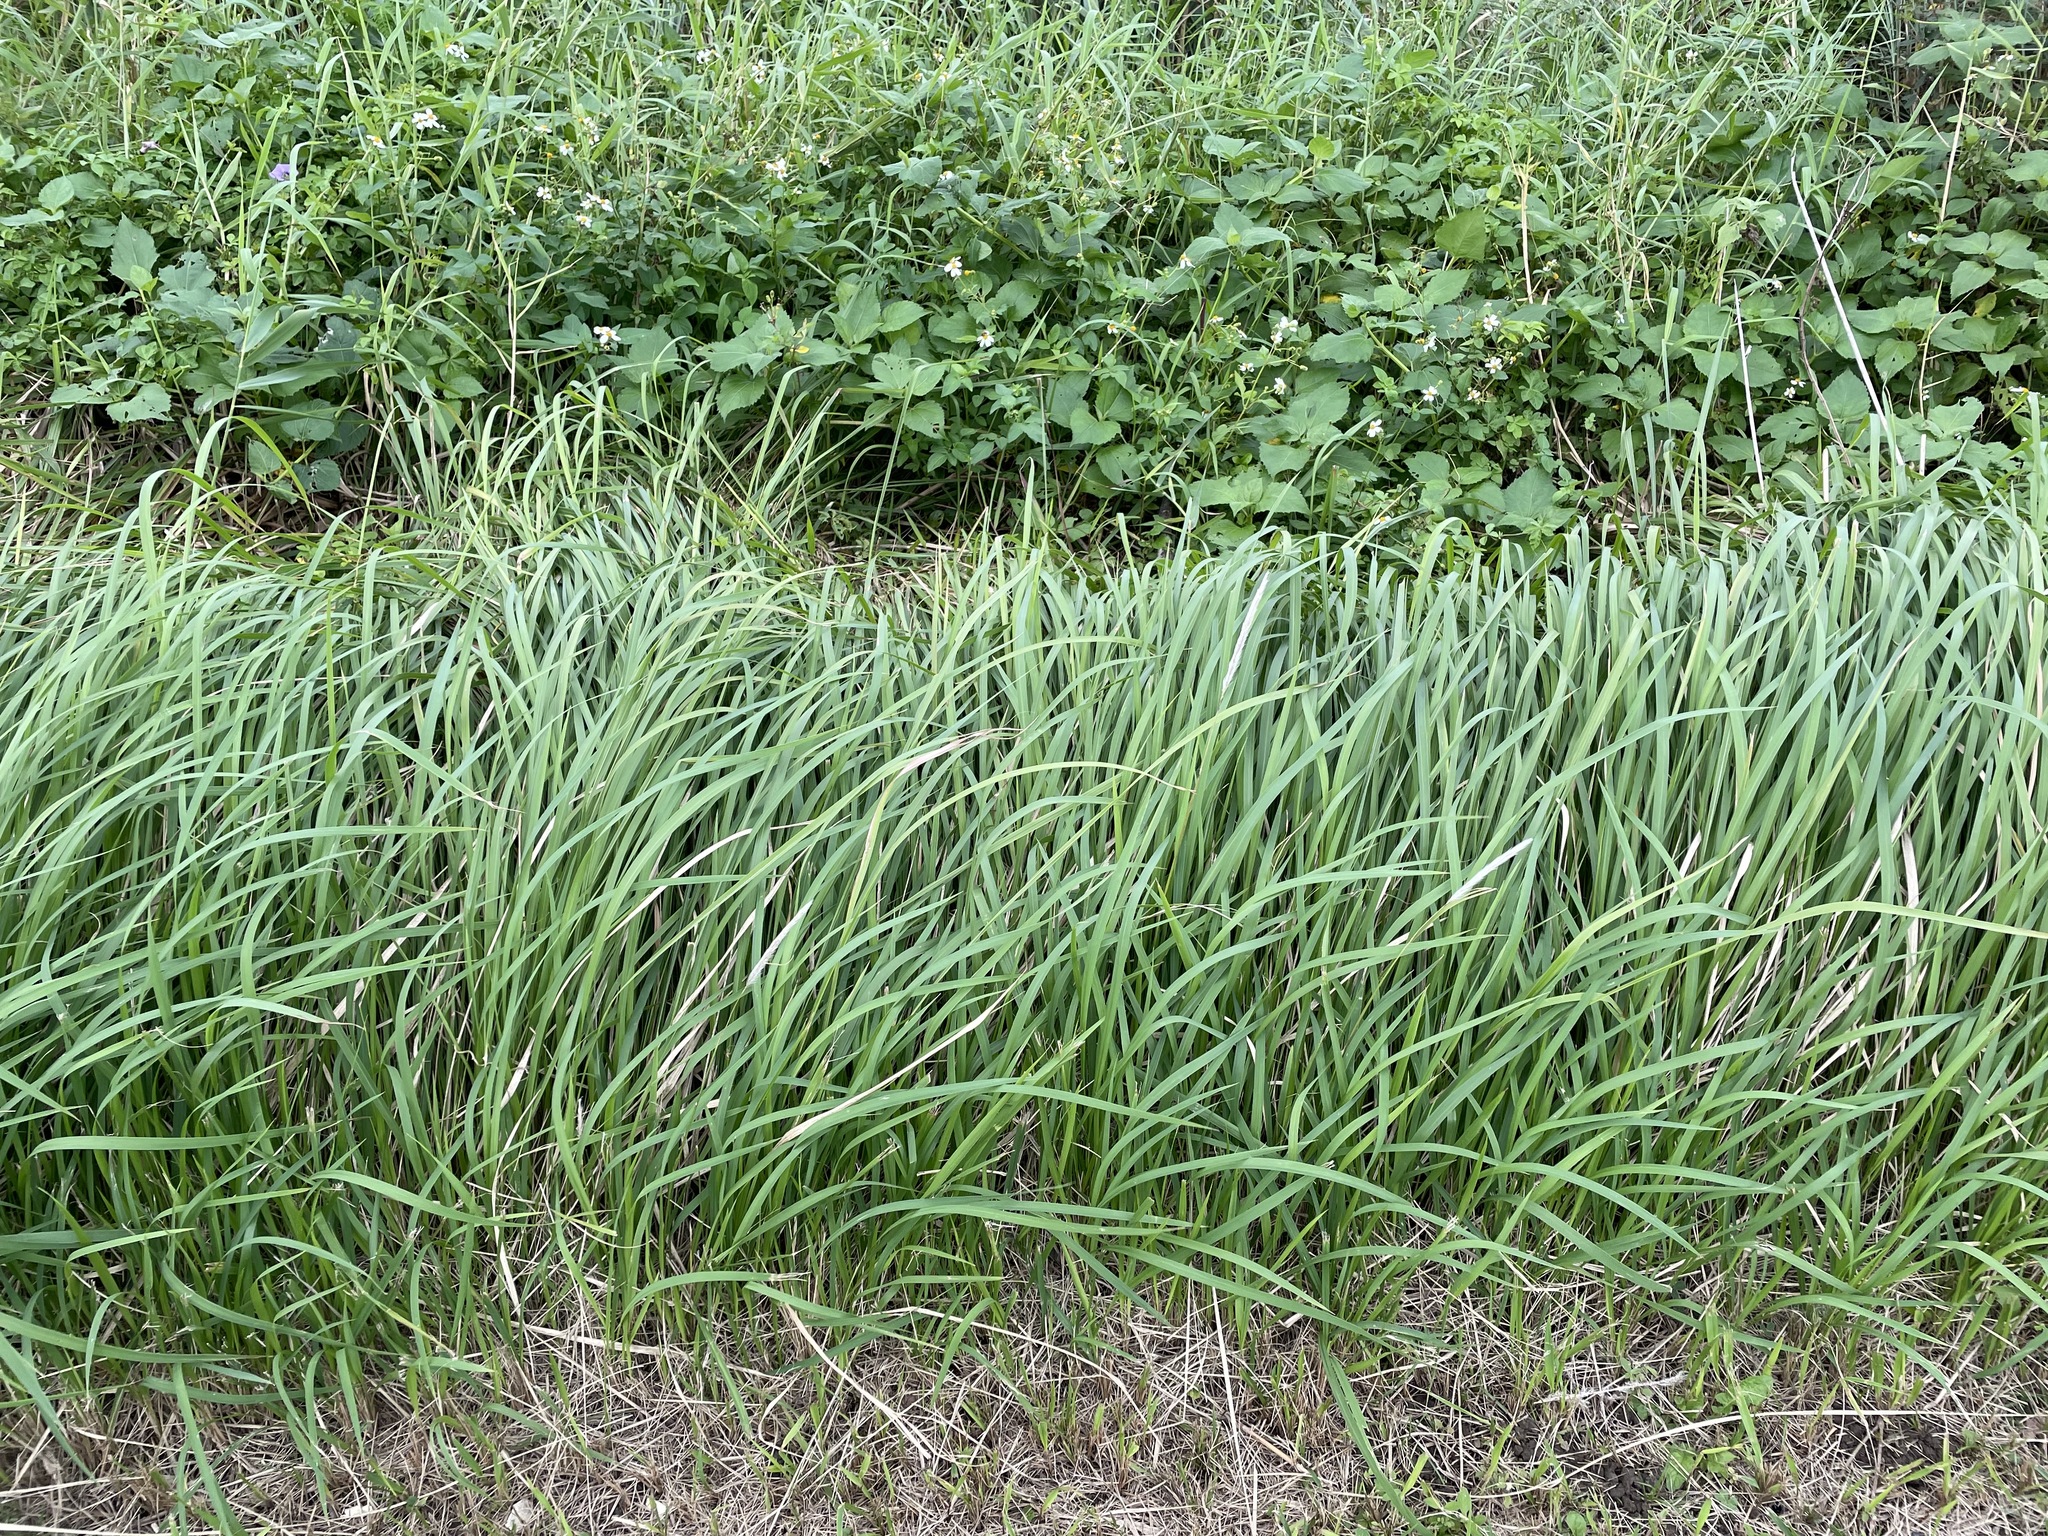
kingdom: Plantae
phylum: Tracheophyta
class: Liliopsida
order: Poales
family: Poaceae
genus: Imperata
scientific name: Imperata cylindrica
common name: Cogongrass
